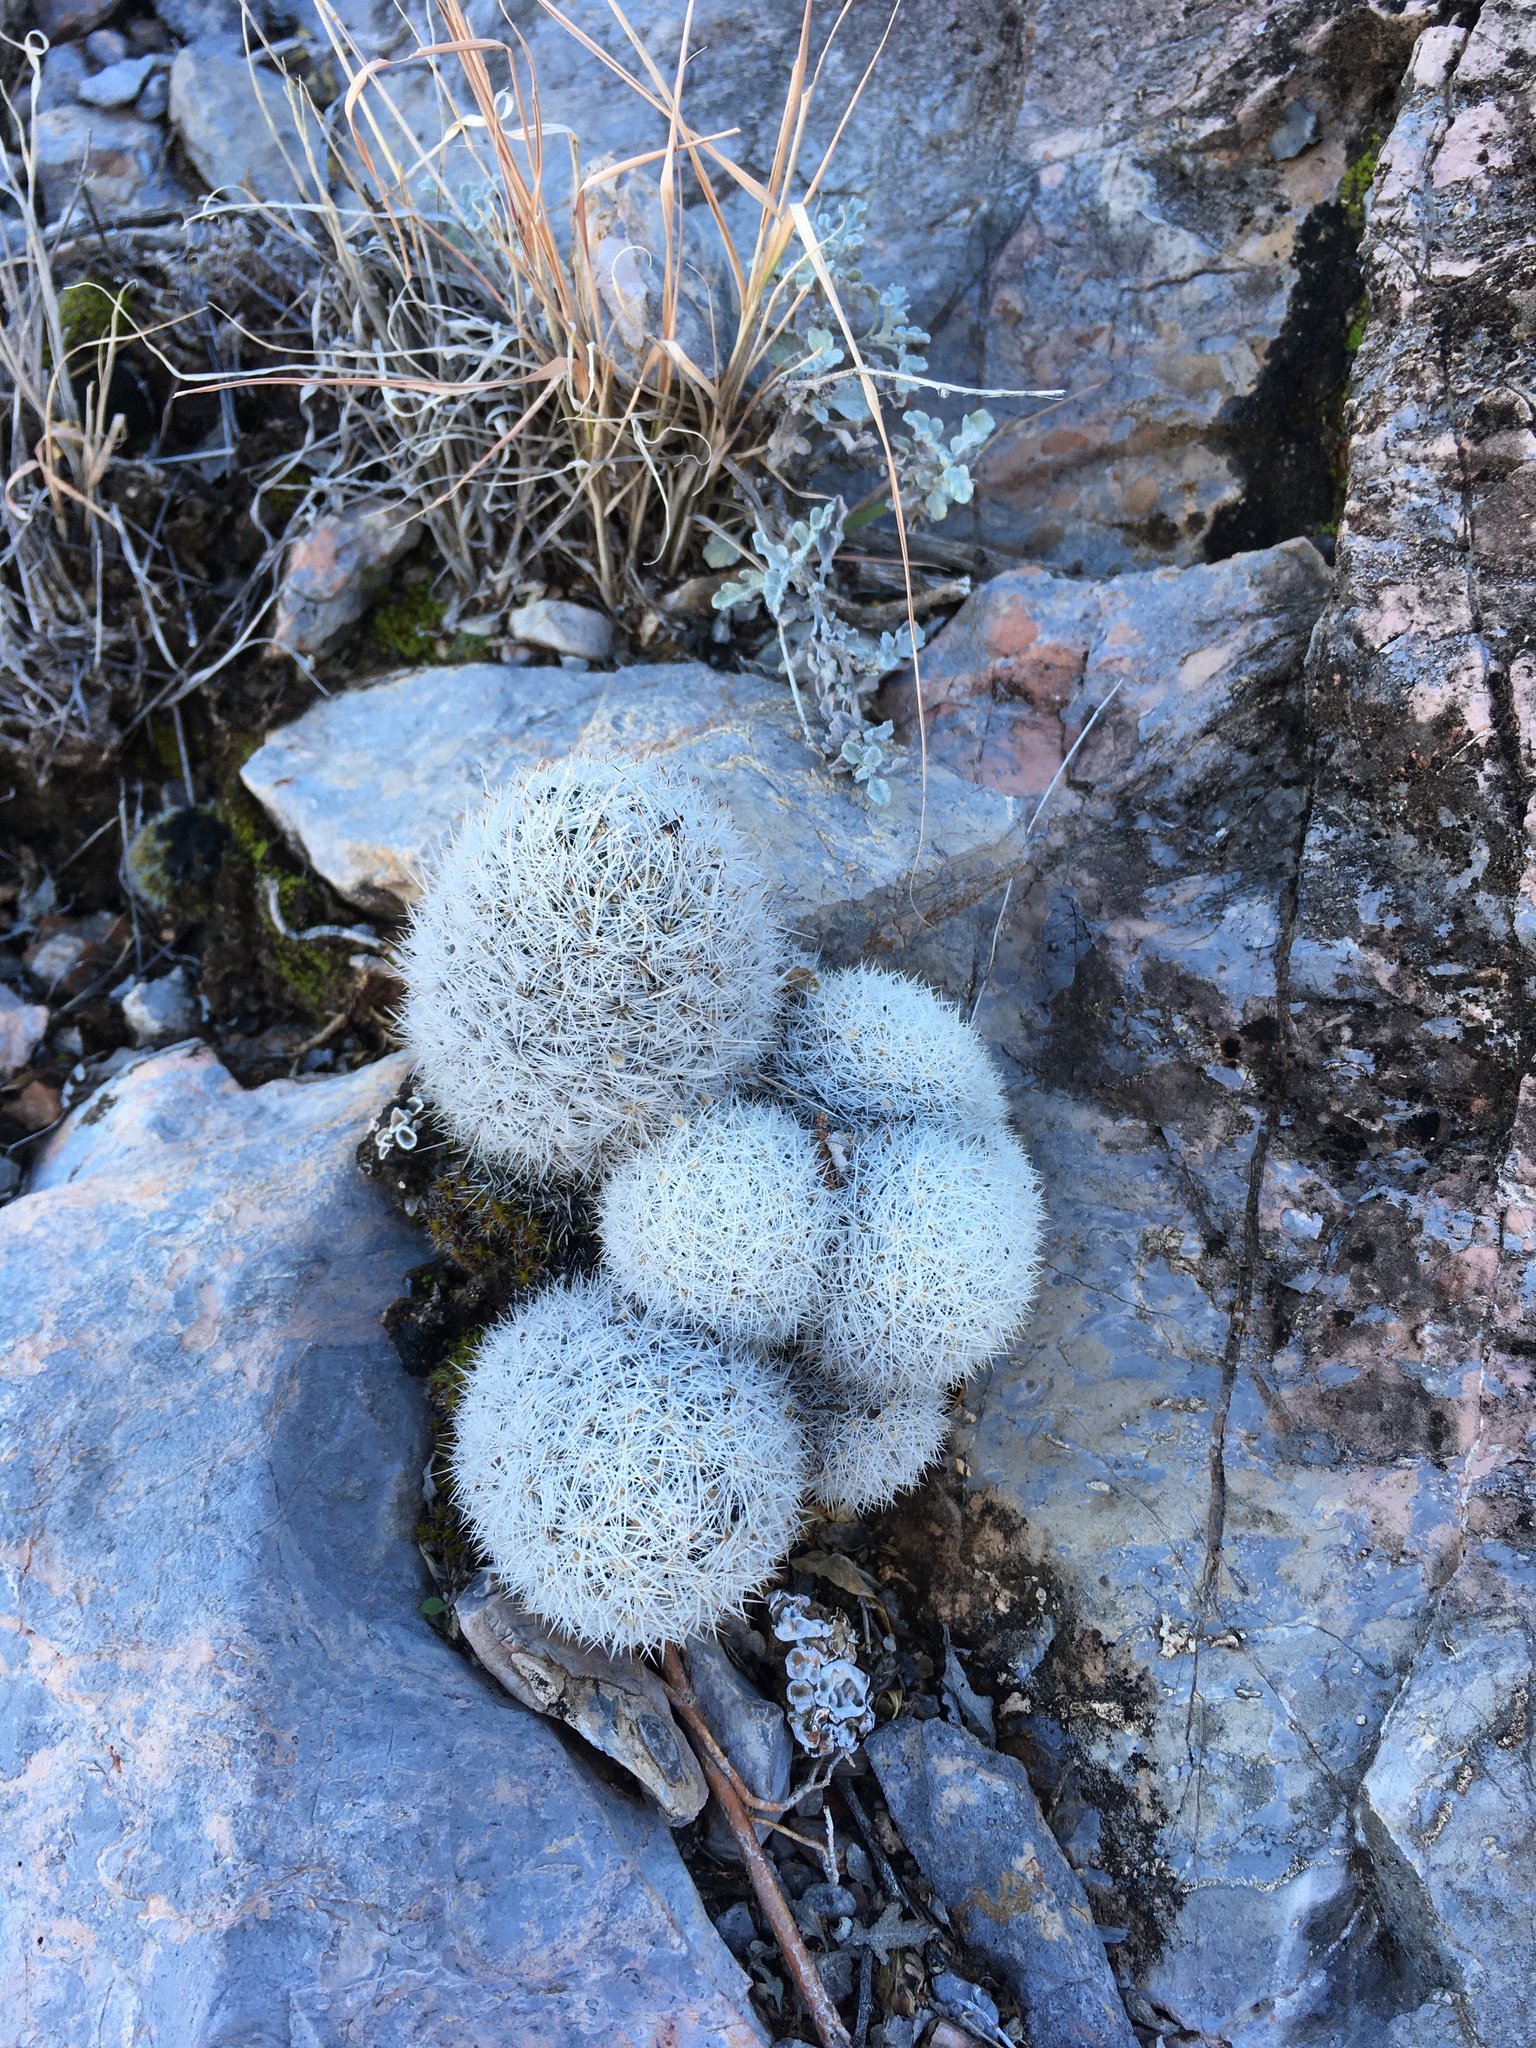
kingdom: Plantae
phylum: Tracheophyta
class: Magnoliopsida
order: Caryophyllales
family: Cactaceae
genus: Pelecyphora
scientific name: Pelecyphora sneedii
